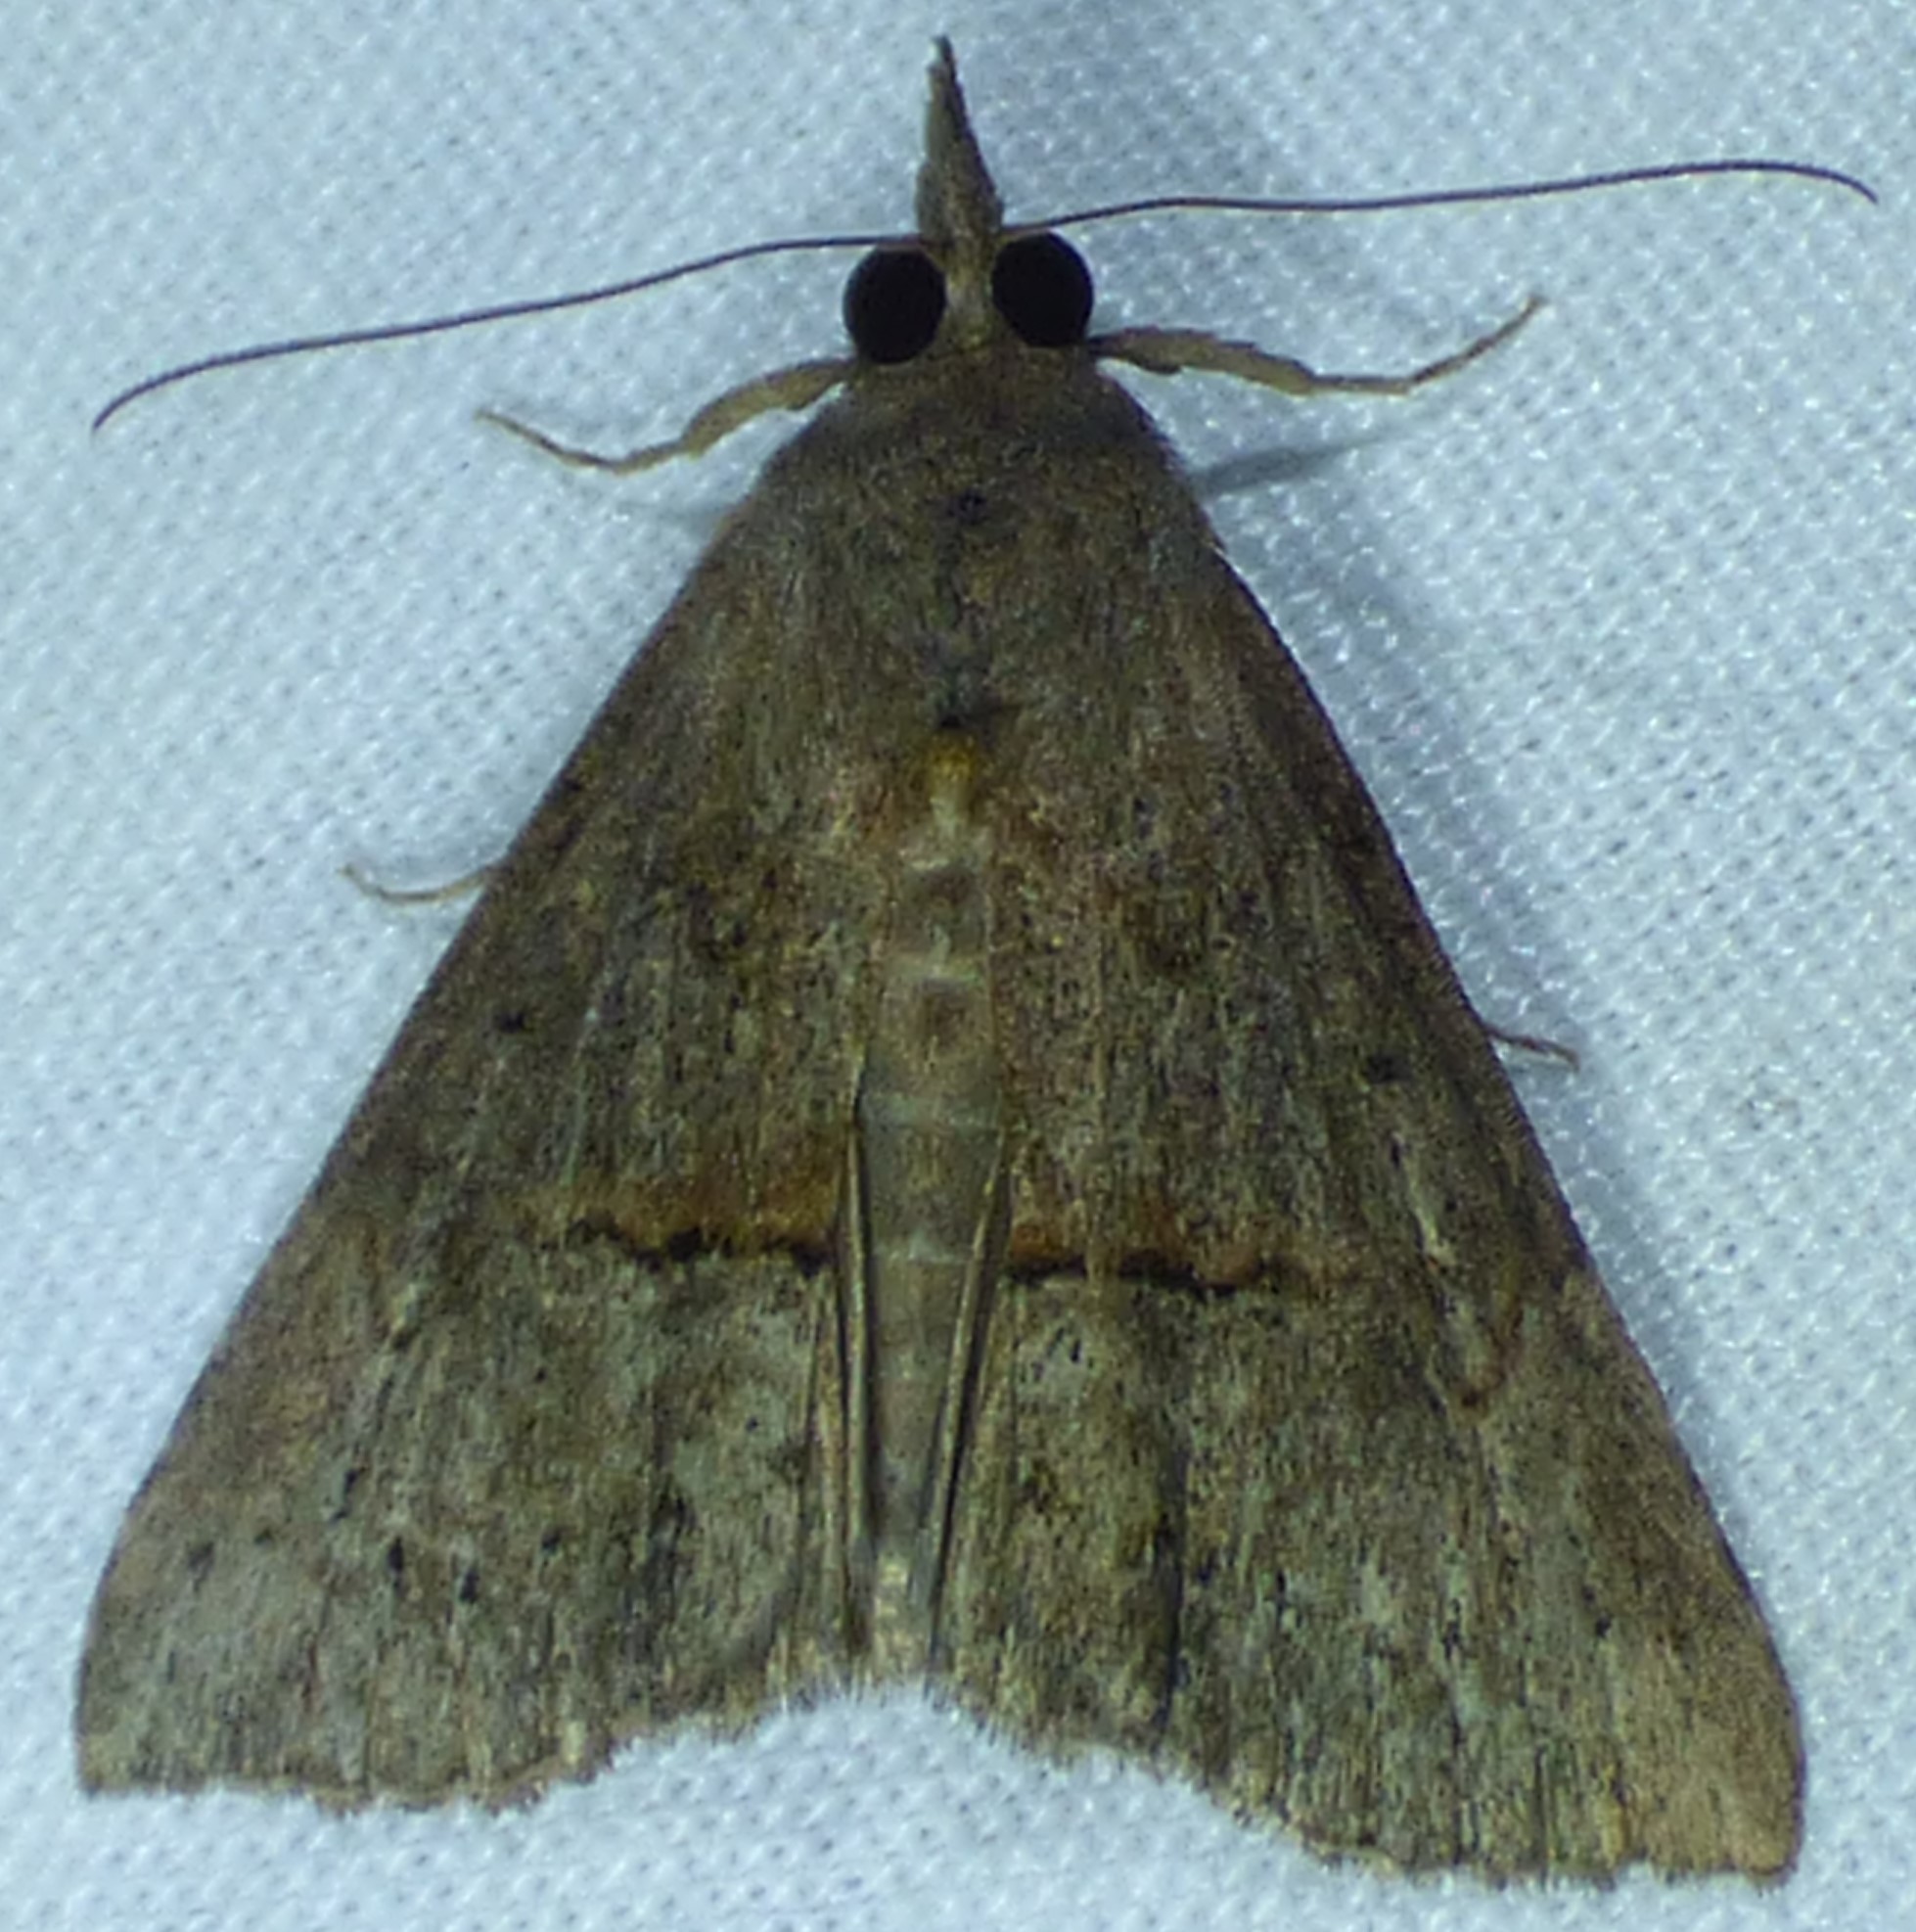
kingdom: Animalia
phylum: Arthropoda
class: Insecta
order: Lepidoptera
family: Erebidae
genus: Hypena
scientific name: Hypena scabra
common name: Green cloverworm
